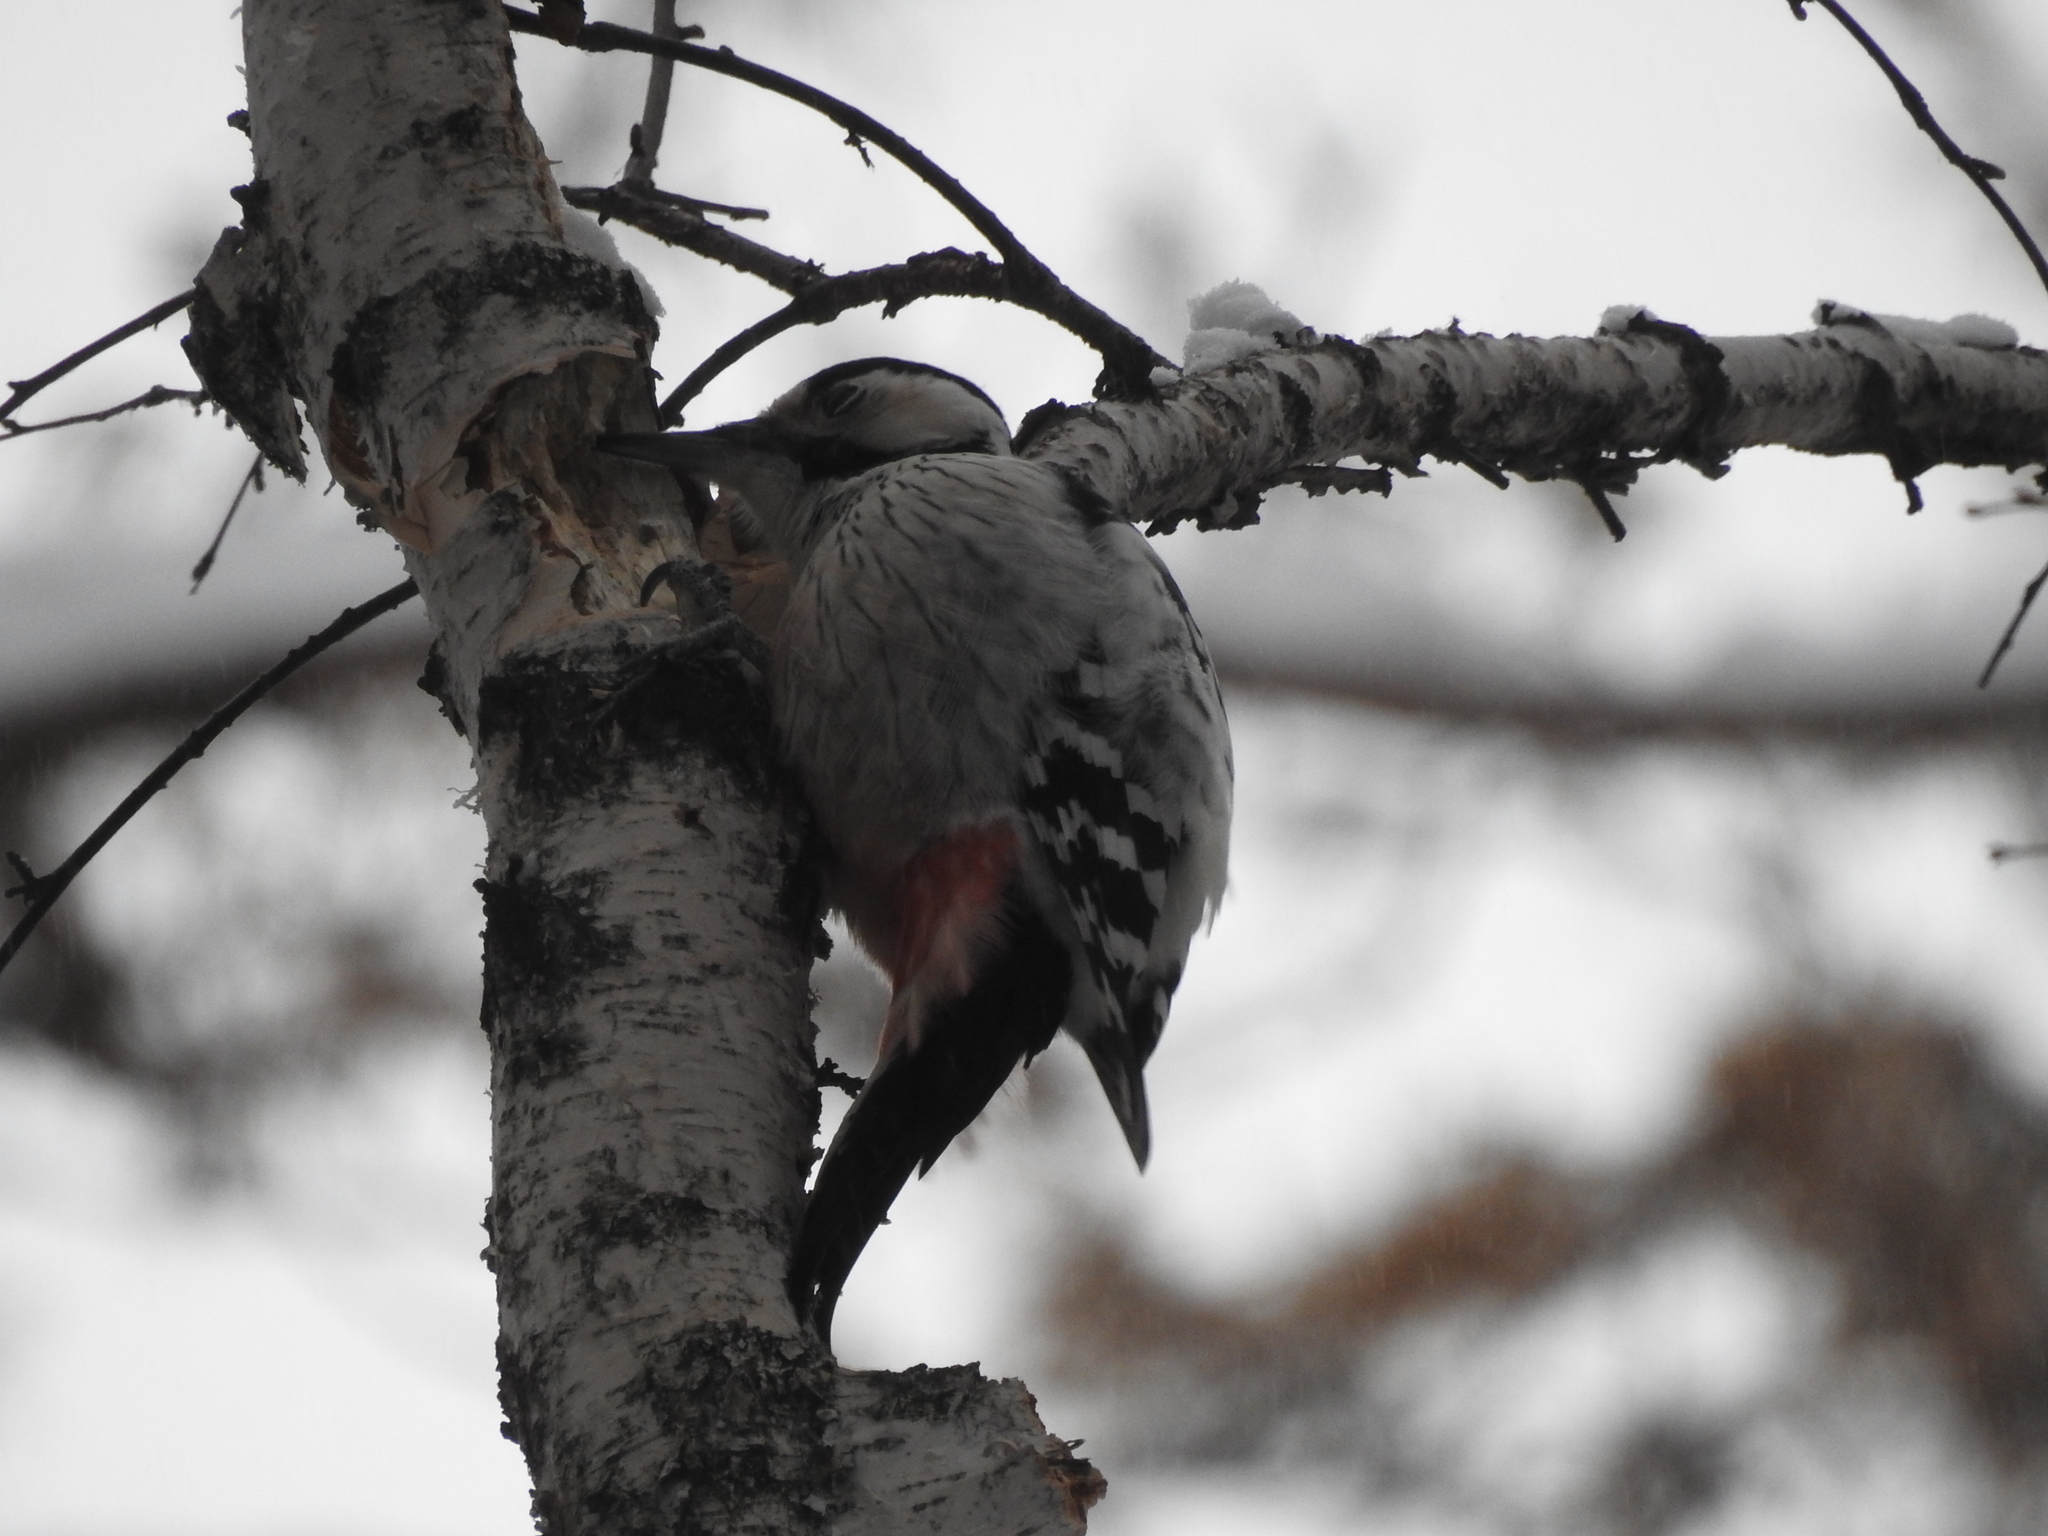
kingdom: Animalia
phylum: Chordata
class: Aves
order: Piciformes
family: Picidae
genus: Dendrocopos
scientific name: Dendrocopos leucotos
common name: White-backed woodpecker
